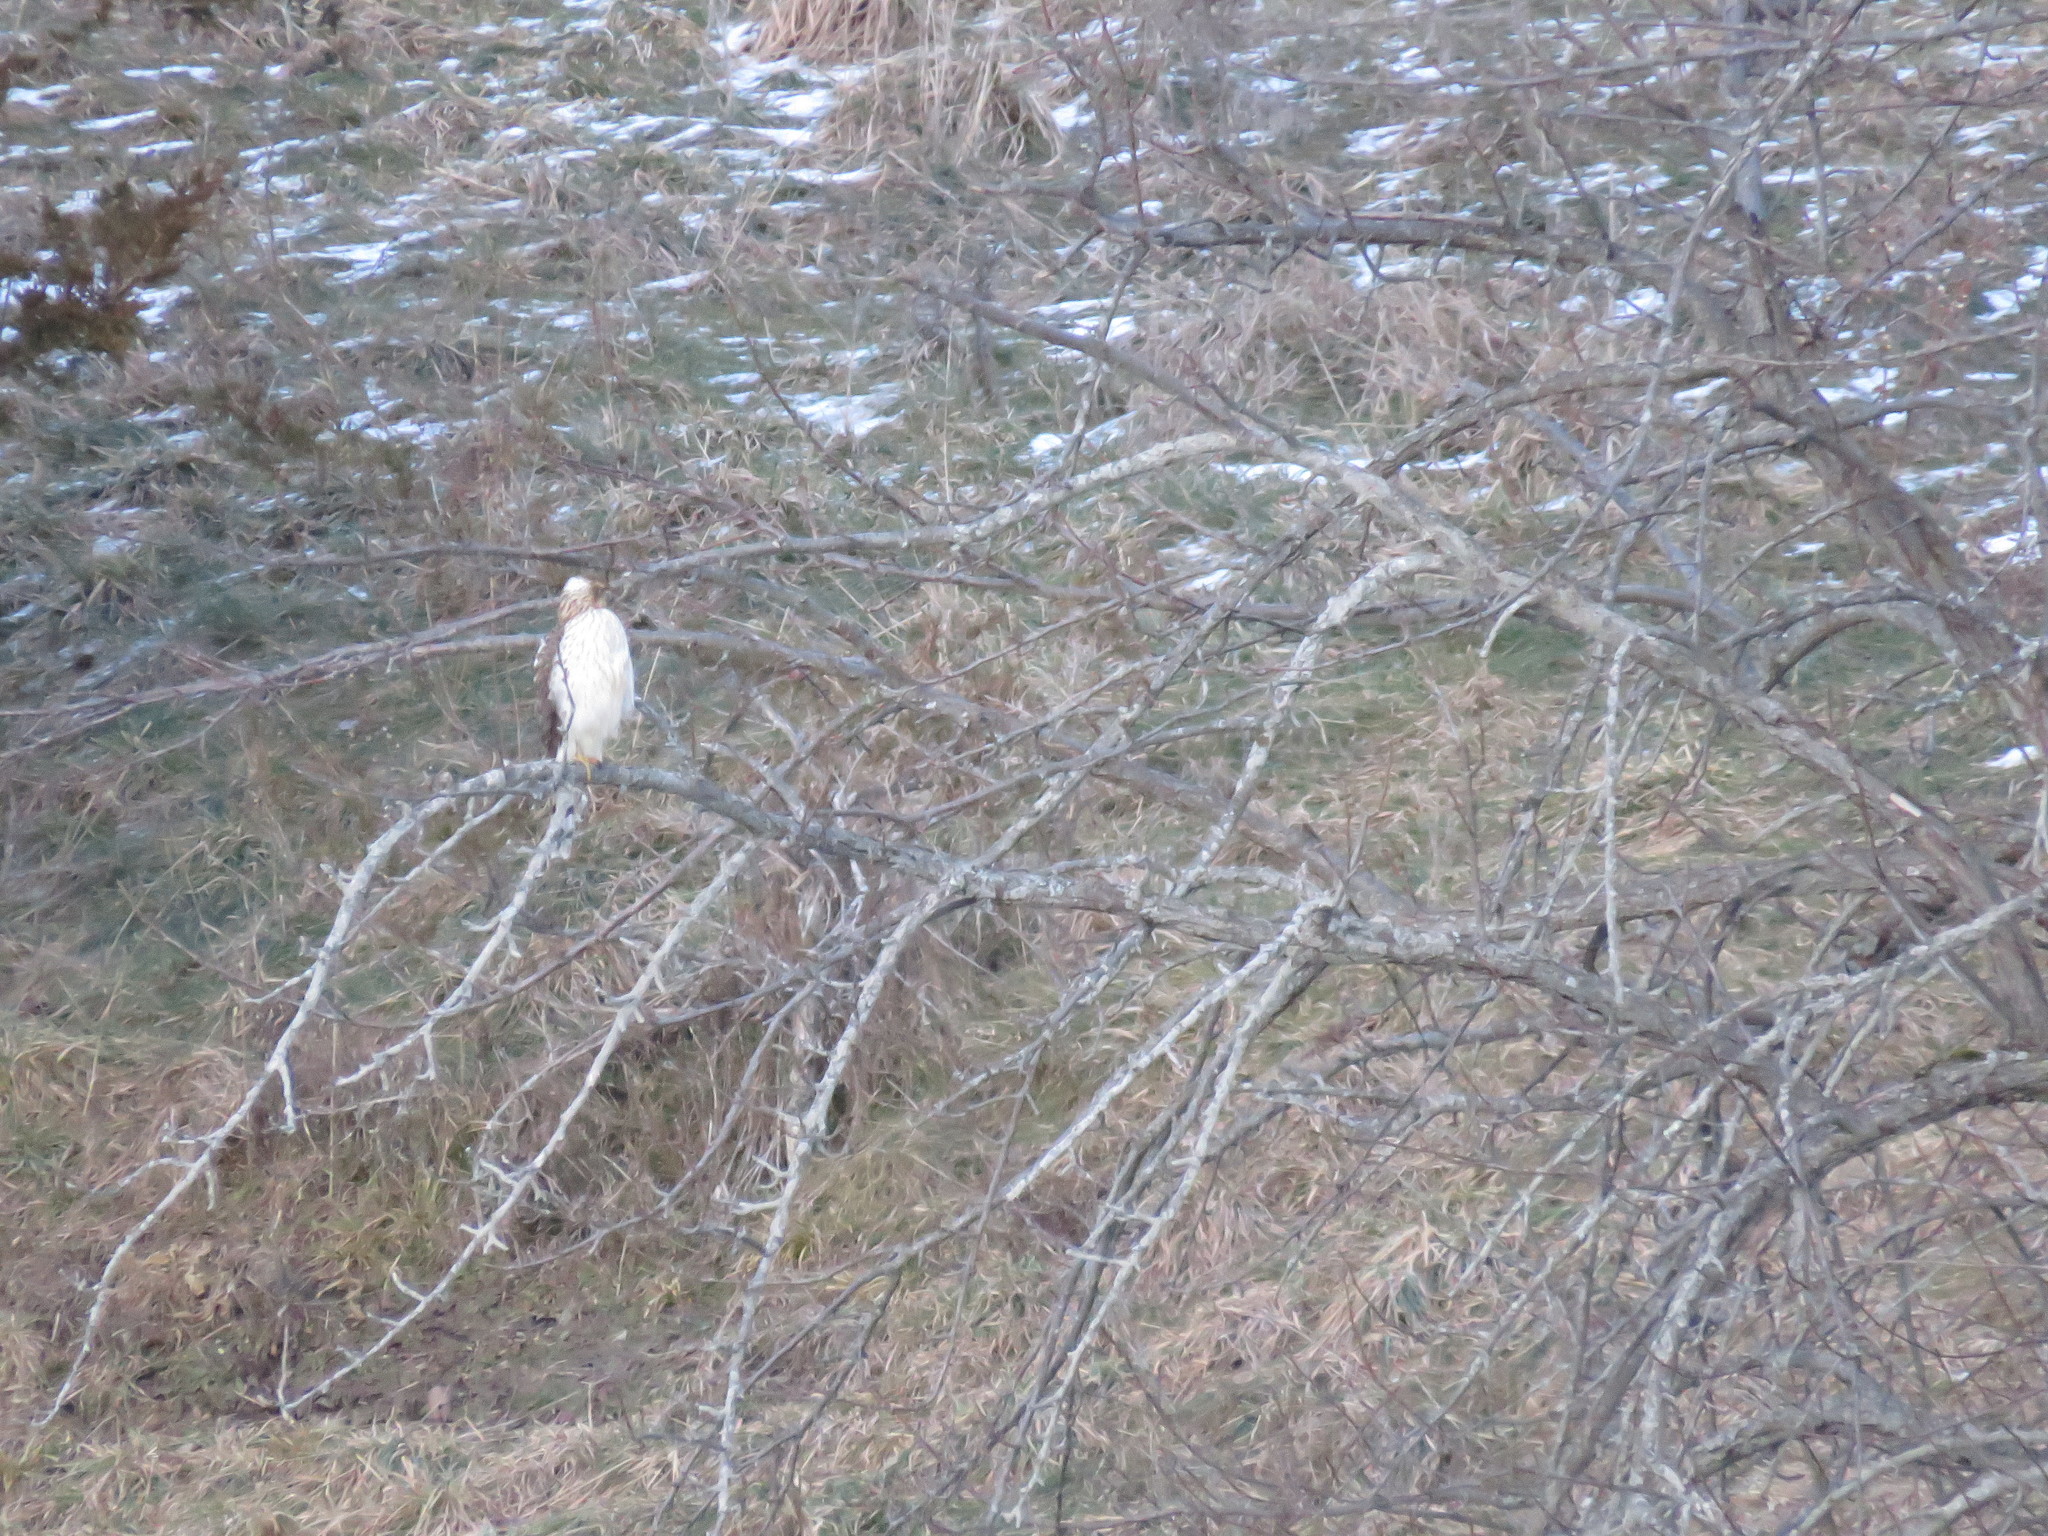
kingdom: Animalia
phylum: Chordata
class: Aves
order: Accipitriformes
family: Accipitridae
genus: Accipiter
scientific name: Accipiter cooperii
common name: Cooper's hawk
